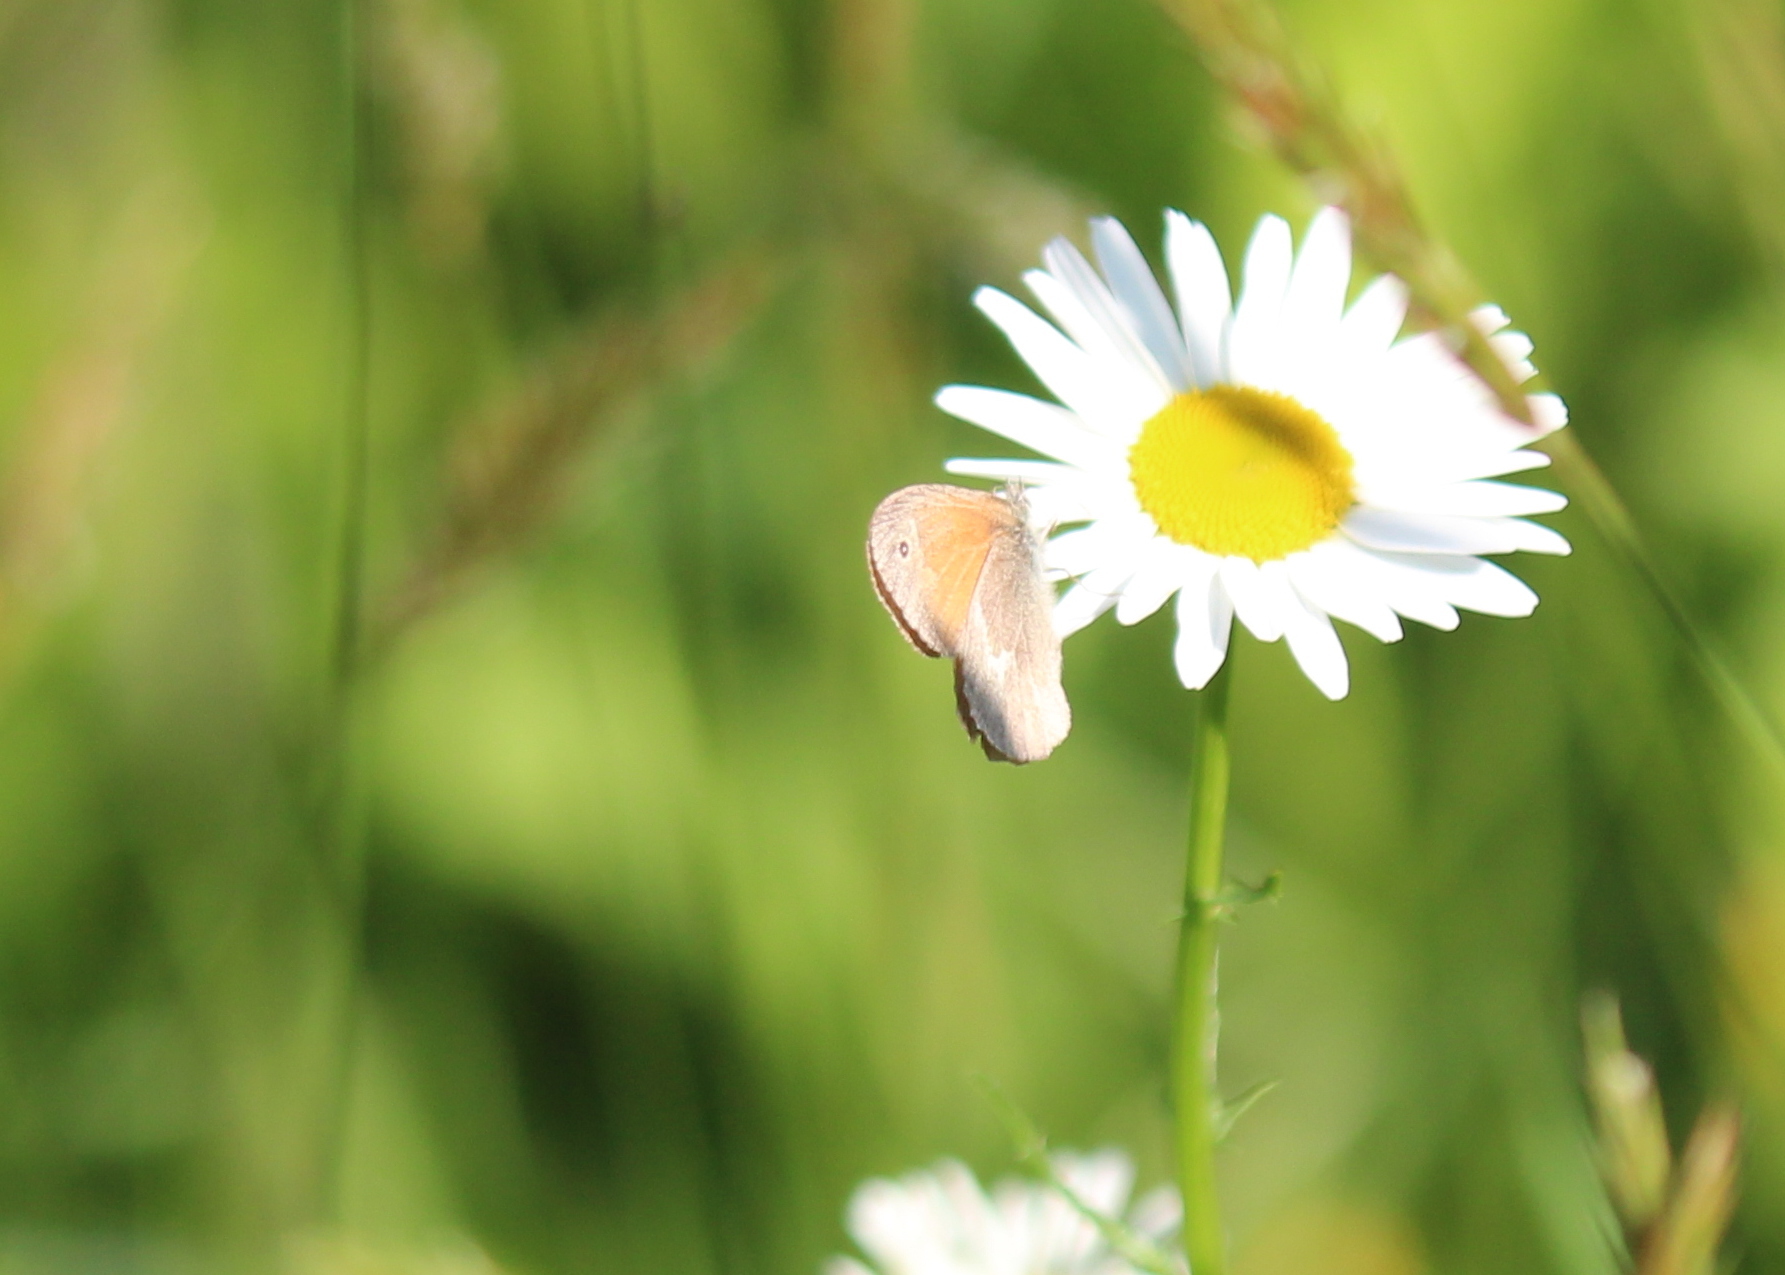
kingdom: Animalia
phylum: Arthropoda
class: Insecta
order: Lepidoptera
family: Nymphalidae
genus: Coenonympha
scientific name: Coenonympha california
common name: Common ringlet
